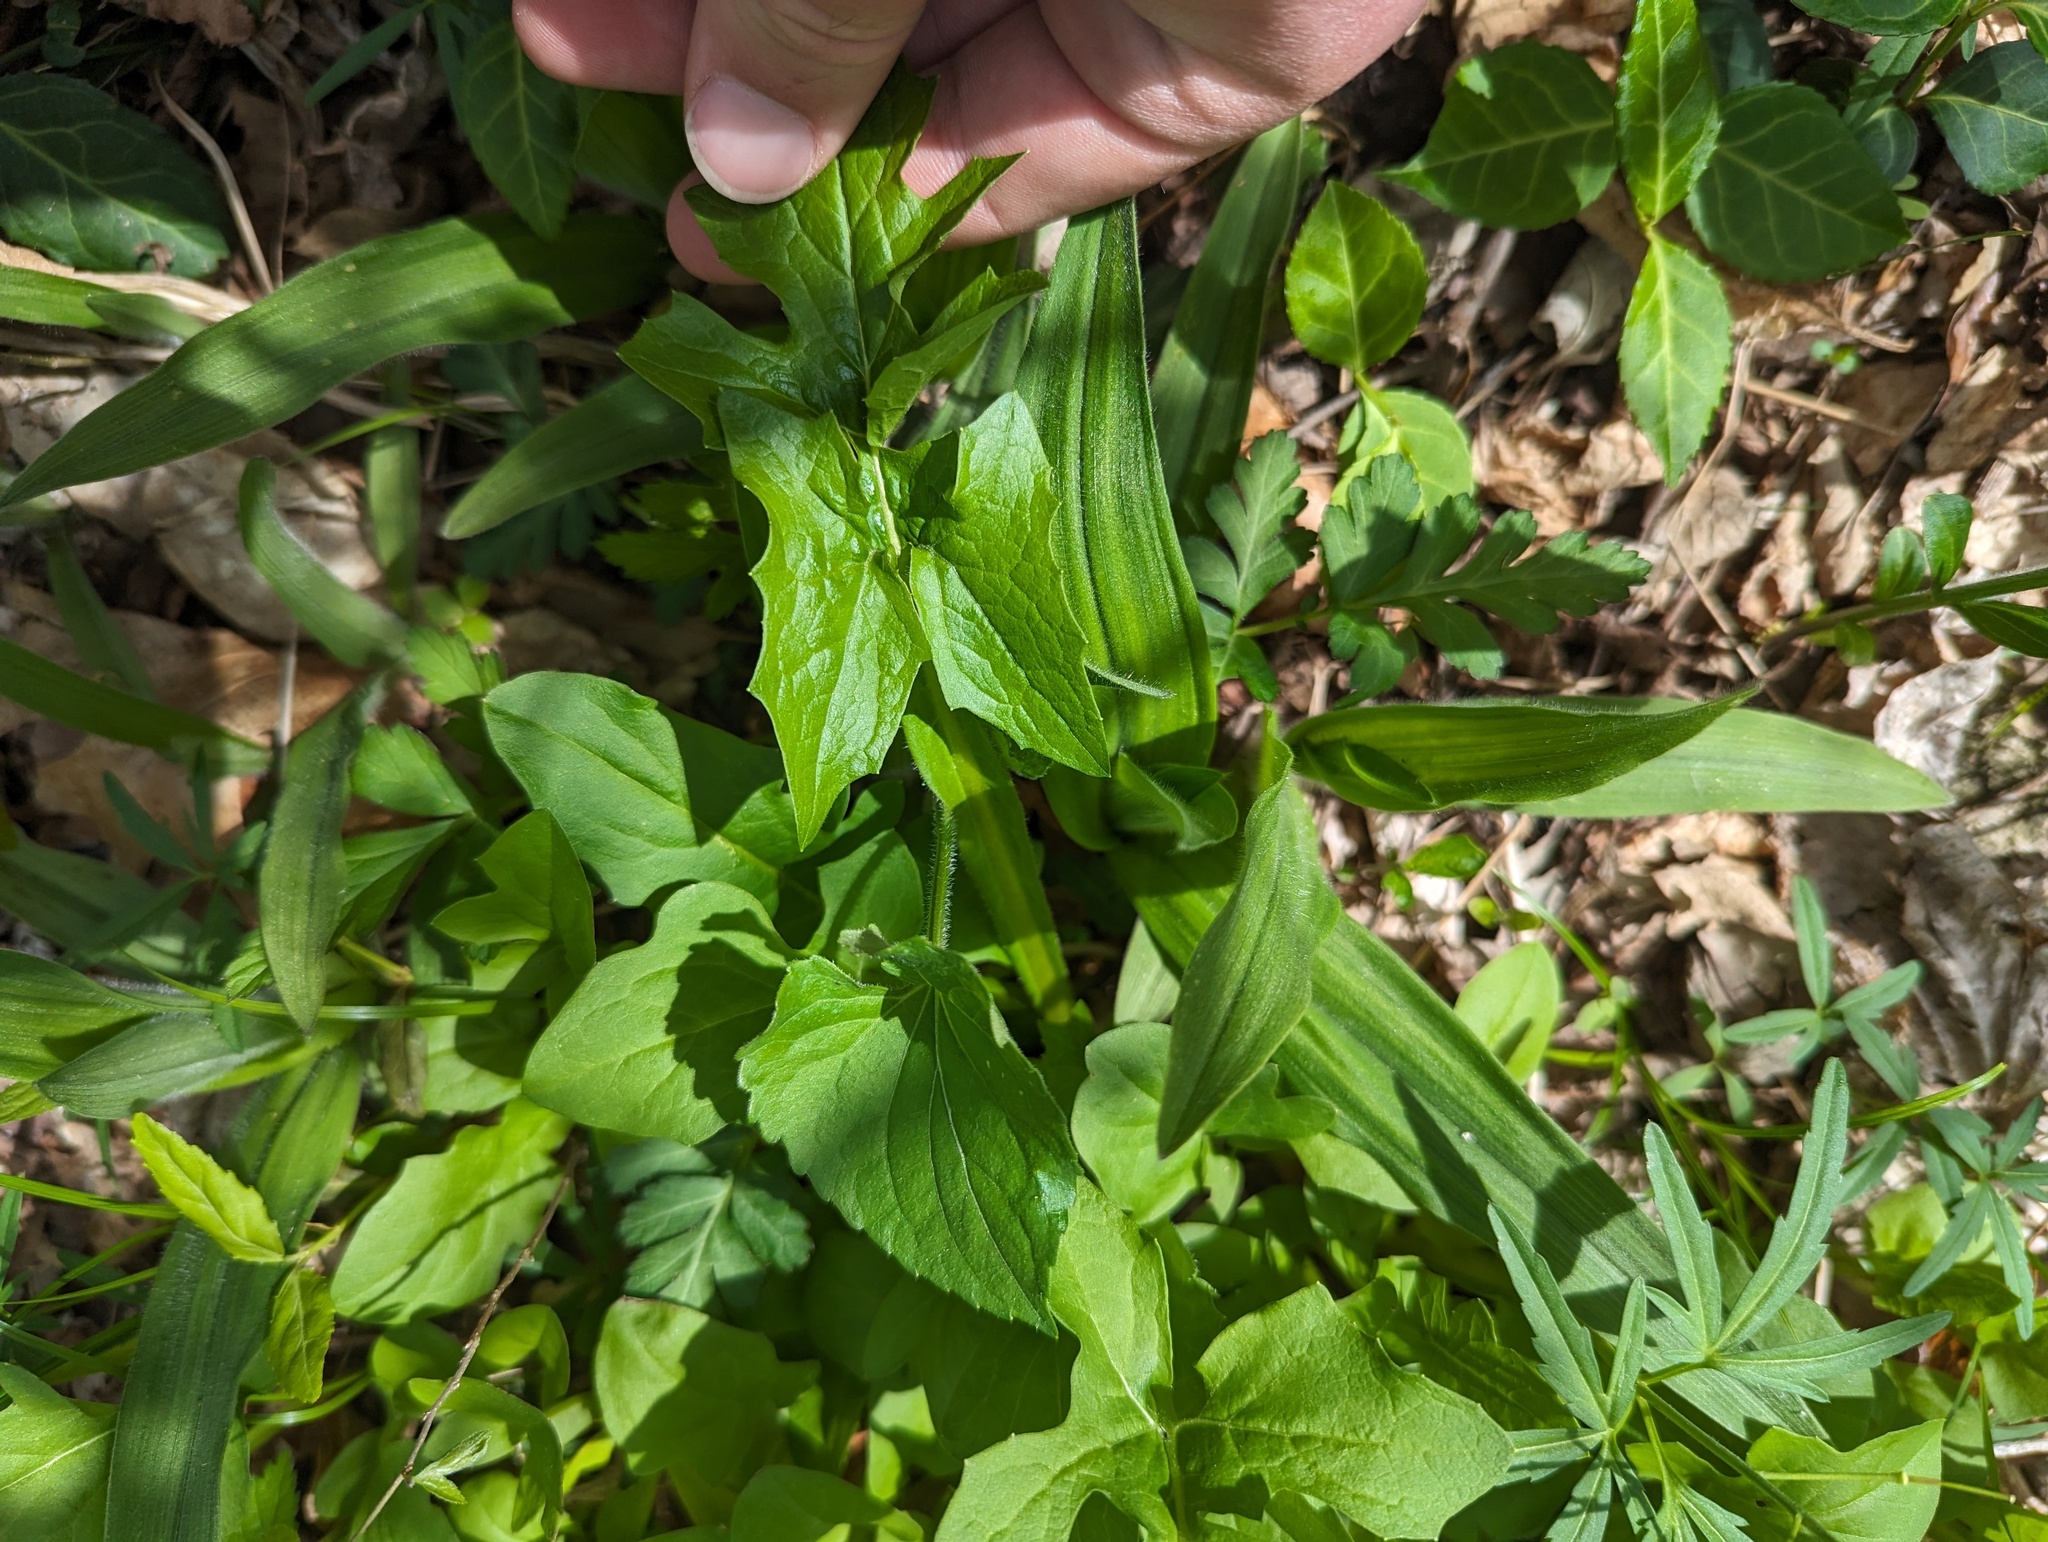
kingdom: Plantae
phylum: Tracheophyta
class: Magnoliopsida
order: Asterales
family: Asteraceae
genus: Nabalus
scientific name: Nabalus crepidineus
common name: Nodding rattlesnakeroot
